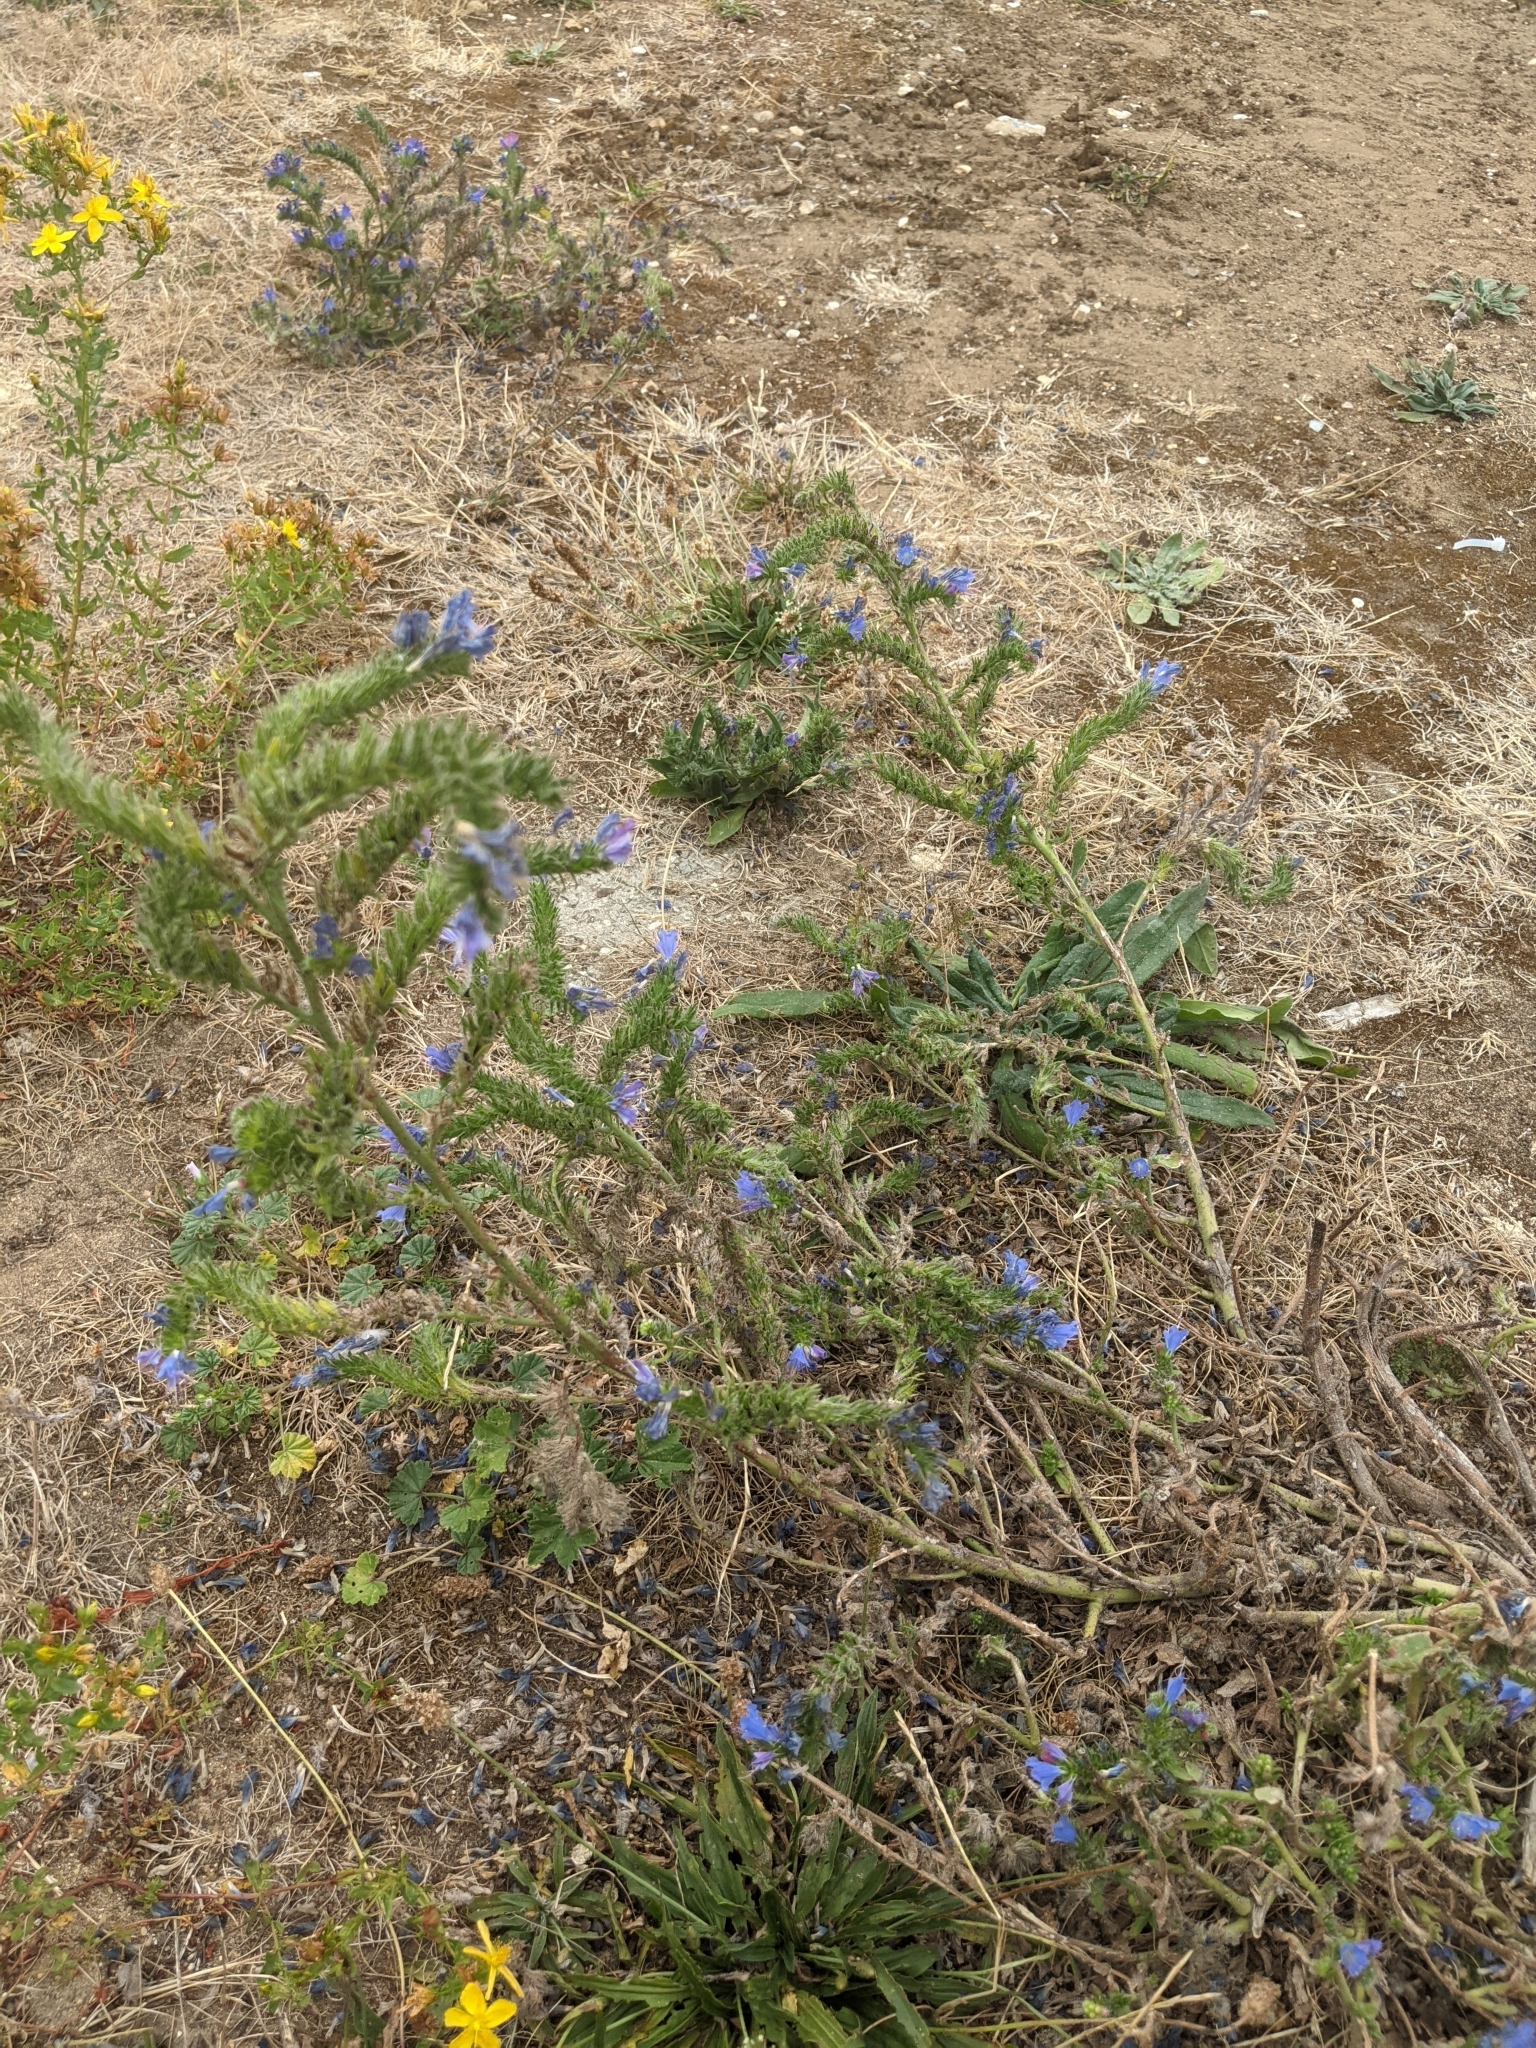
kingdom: Plantae
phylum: Tracheophyta
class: Magnoliopsida
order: Boraginales
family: Boraginaceae
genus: Echium
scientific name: Echium vulgare
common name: Common viper's bugloss
